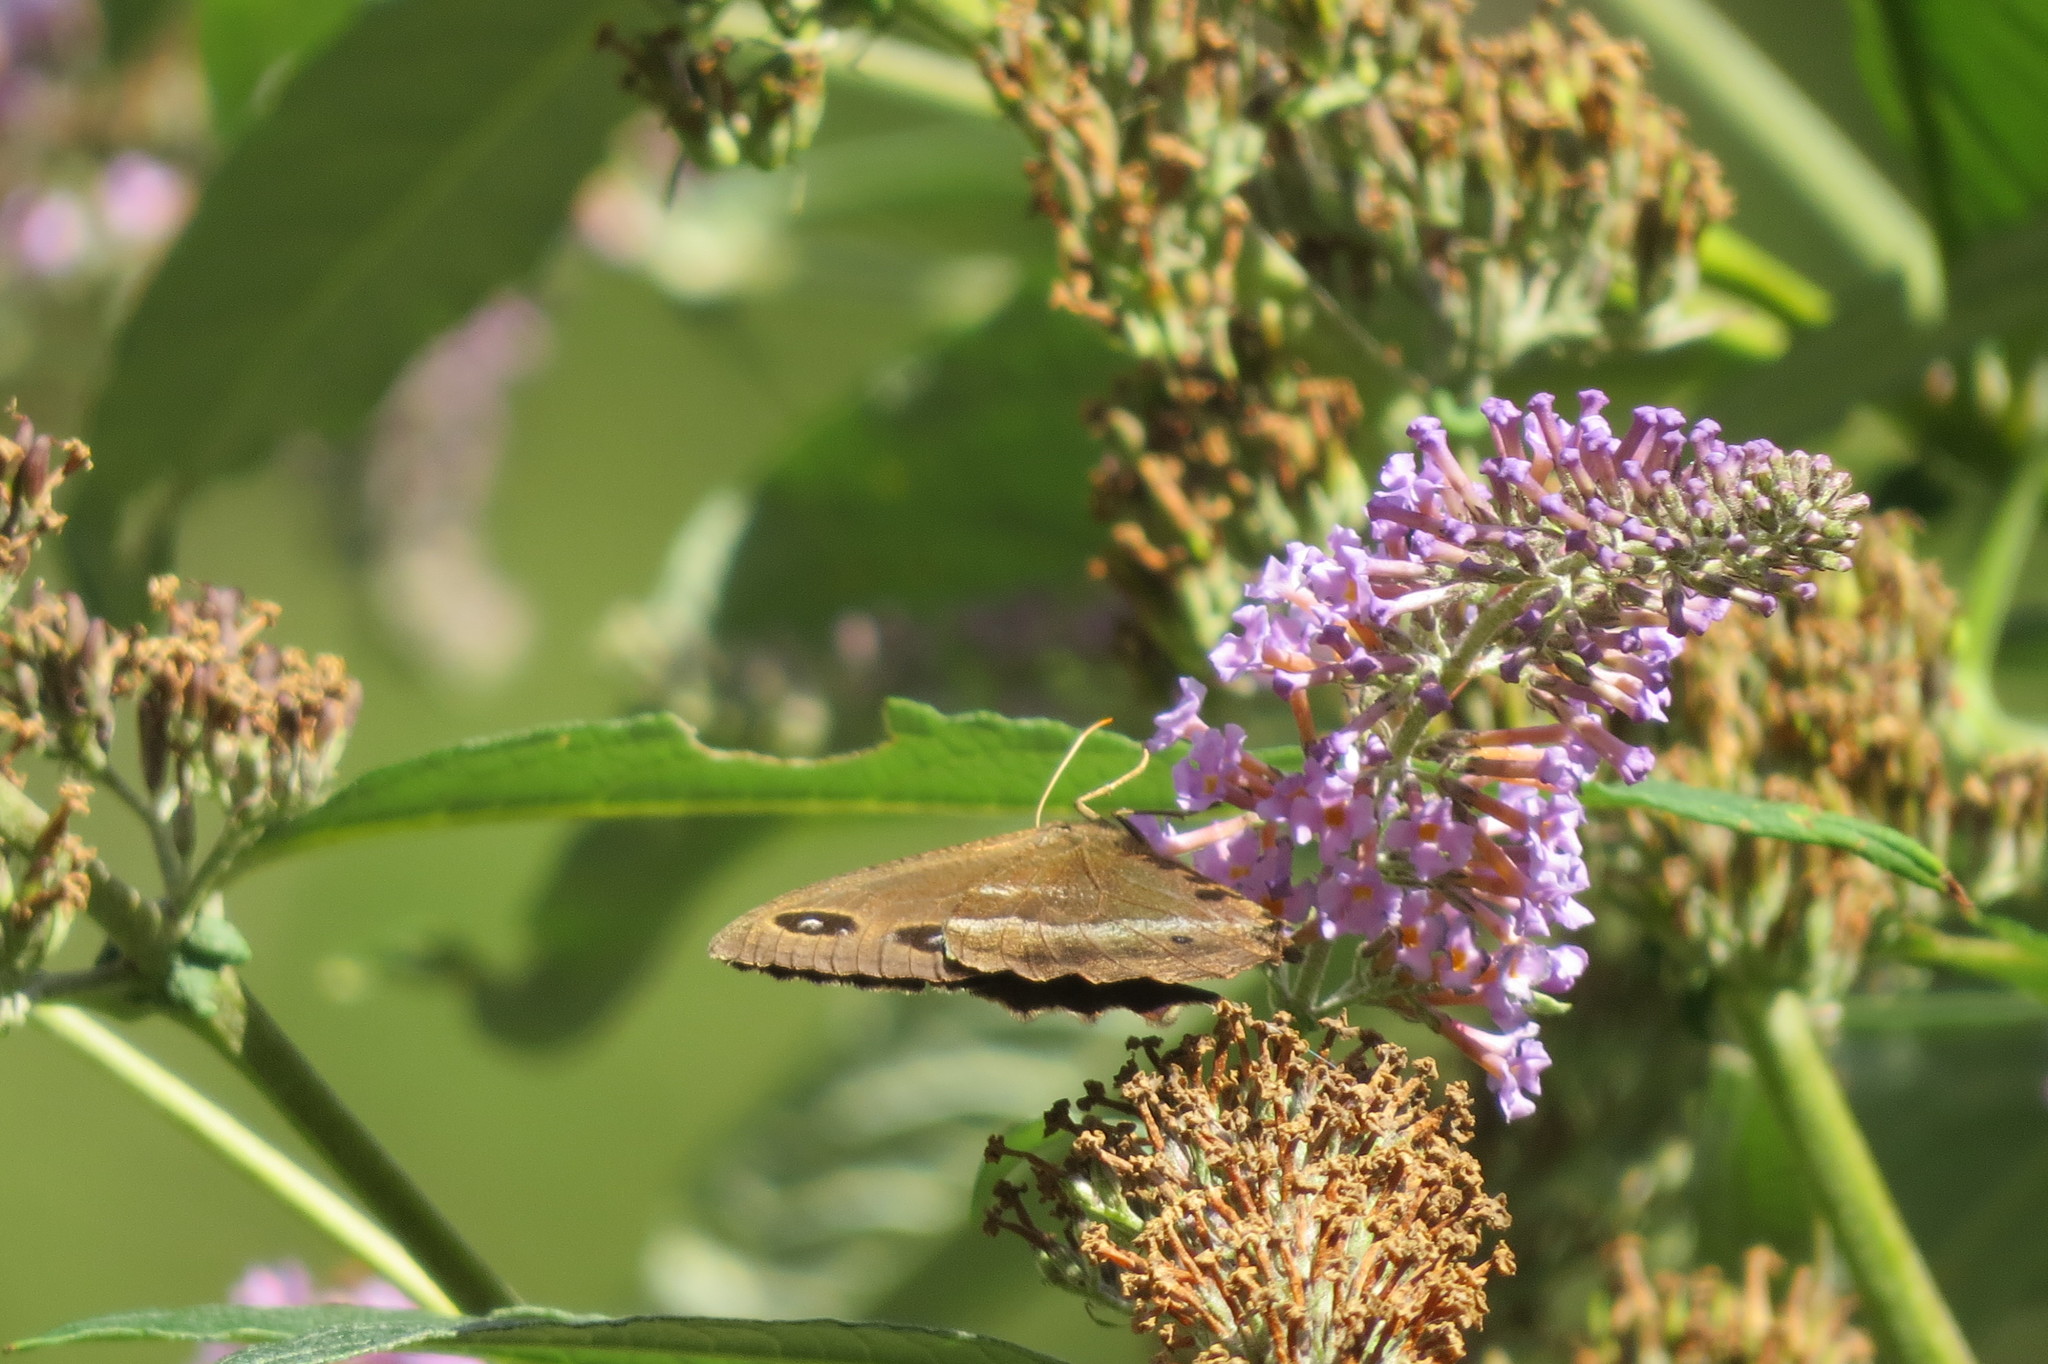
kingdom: Animalia
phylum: Arthropoda
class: Insecta
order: Lepidoptera
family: Nymphalidae
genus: Minois
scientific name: Minois dryas
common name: Dryad
